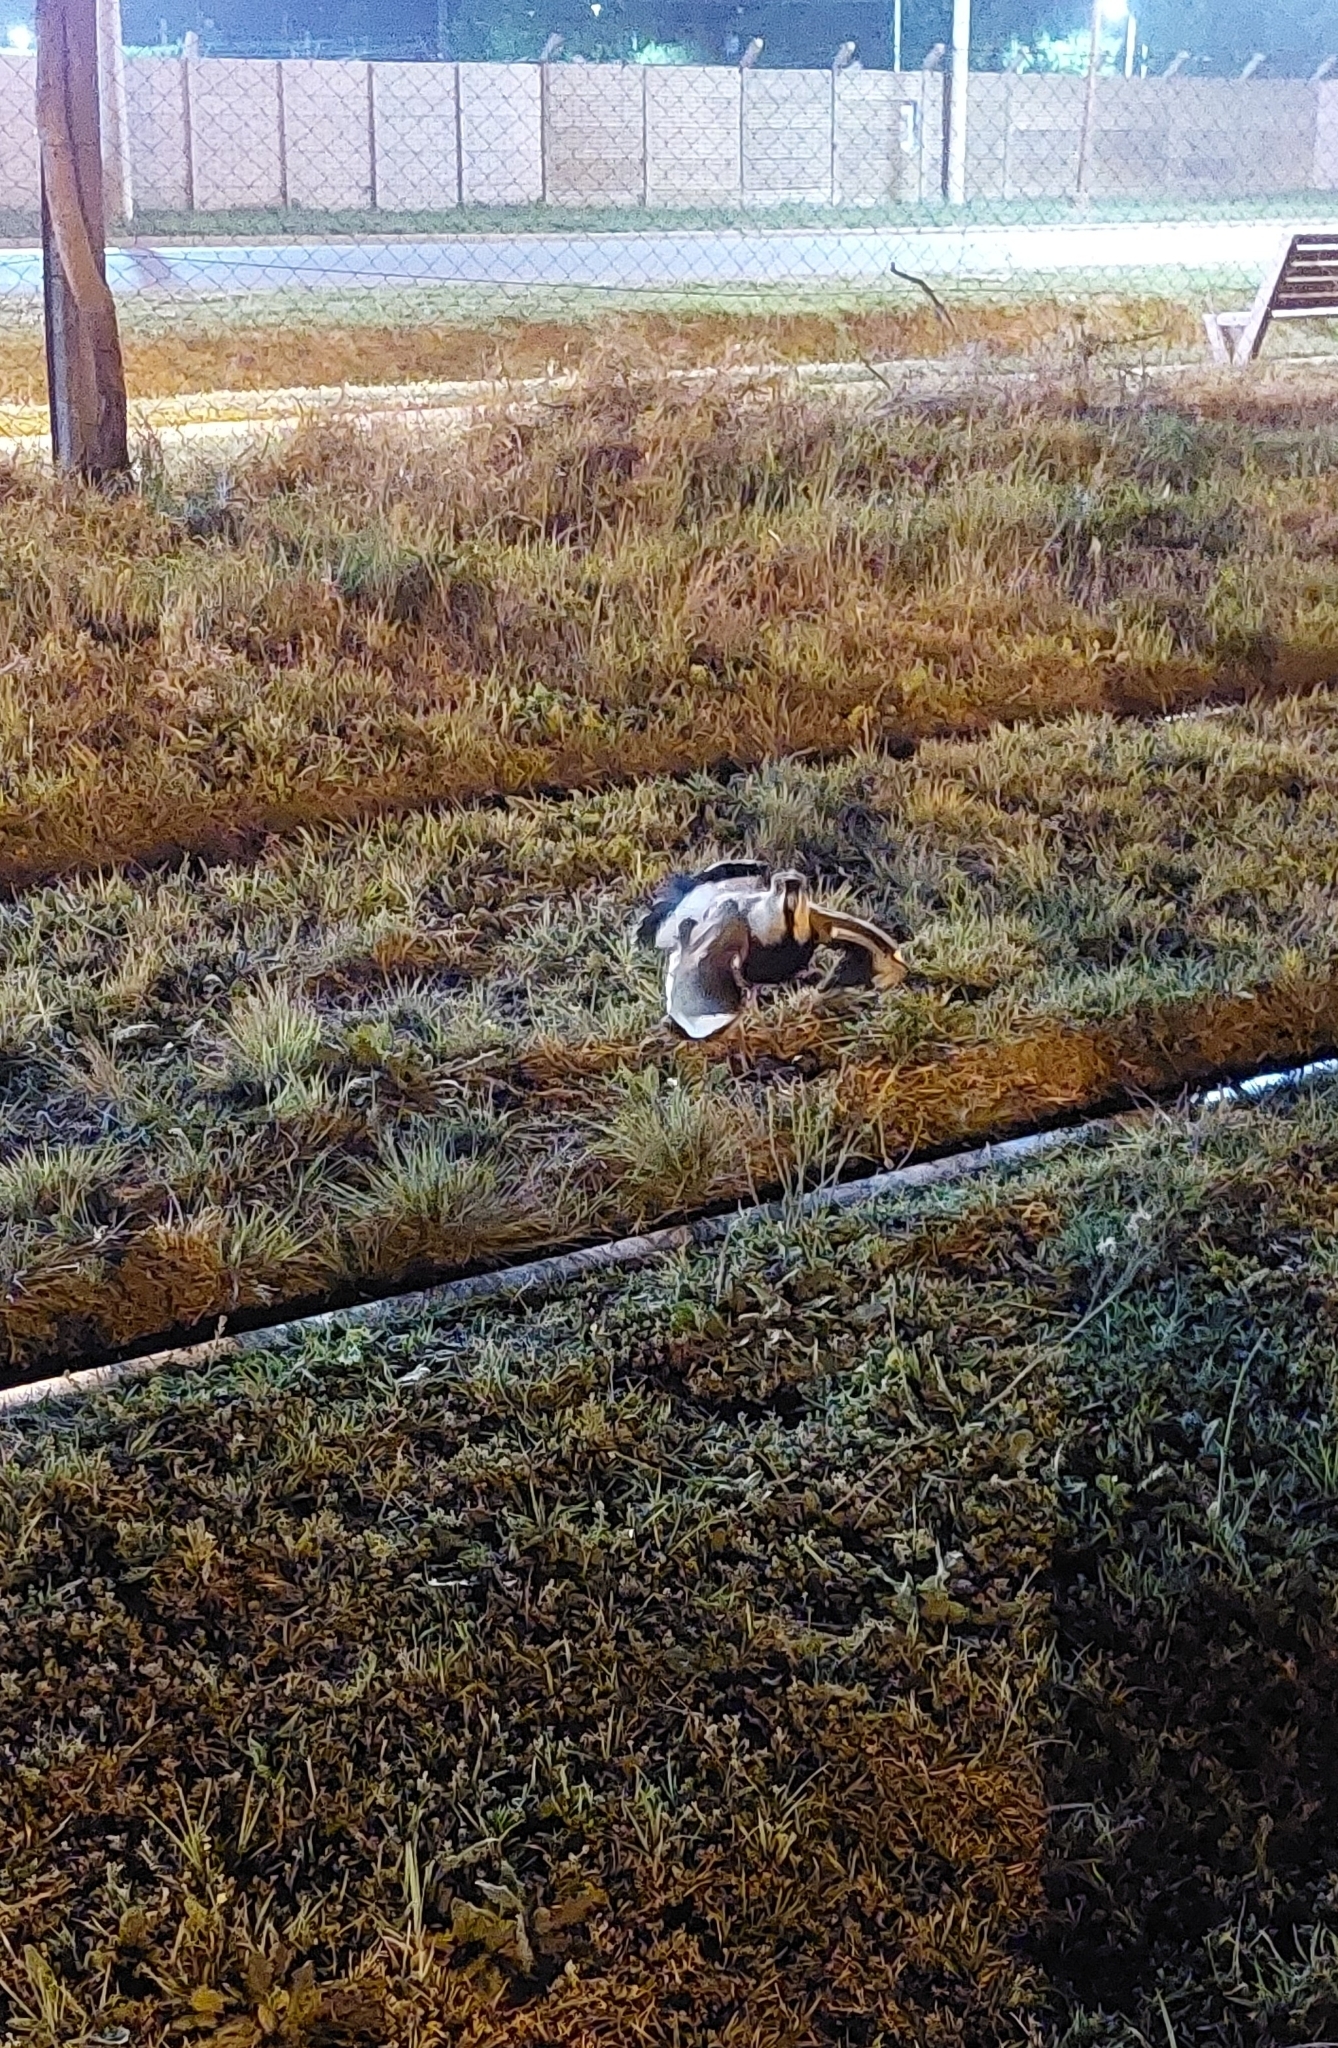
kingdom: Animalia
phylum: Chordata
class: Aves
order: Charadriiformes
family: Charadriidae
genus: Vanellus
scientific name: Vanellus chilensis
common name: Southern lapwing
